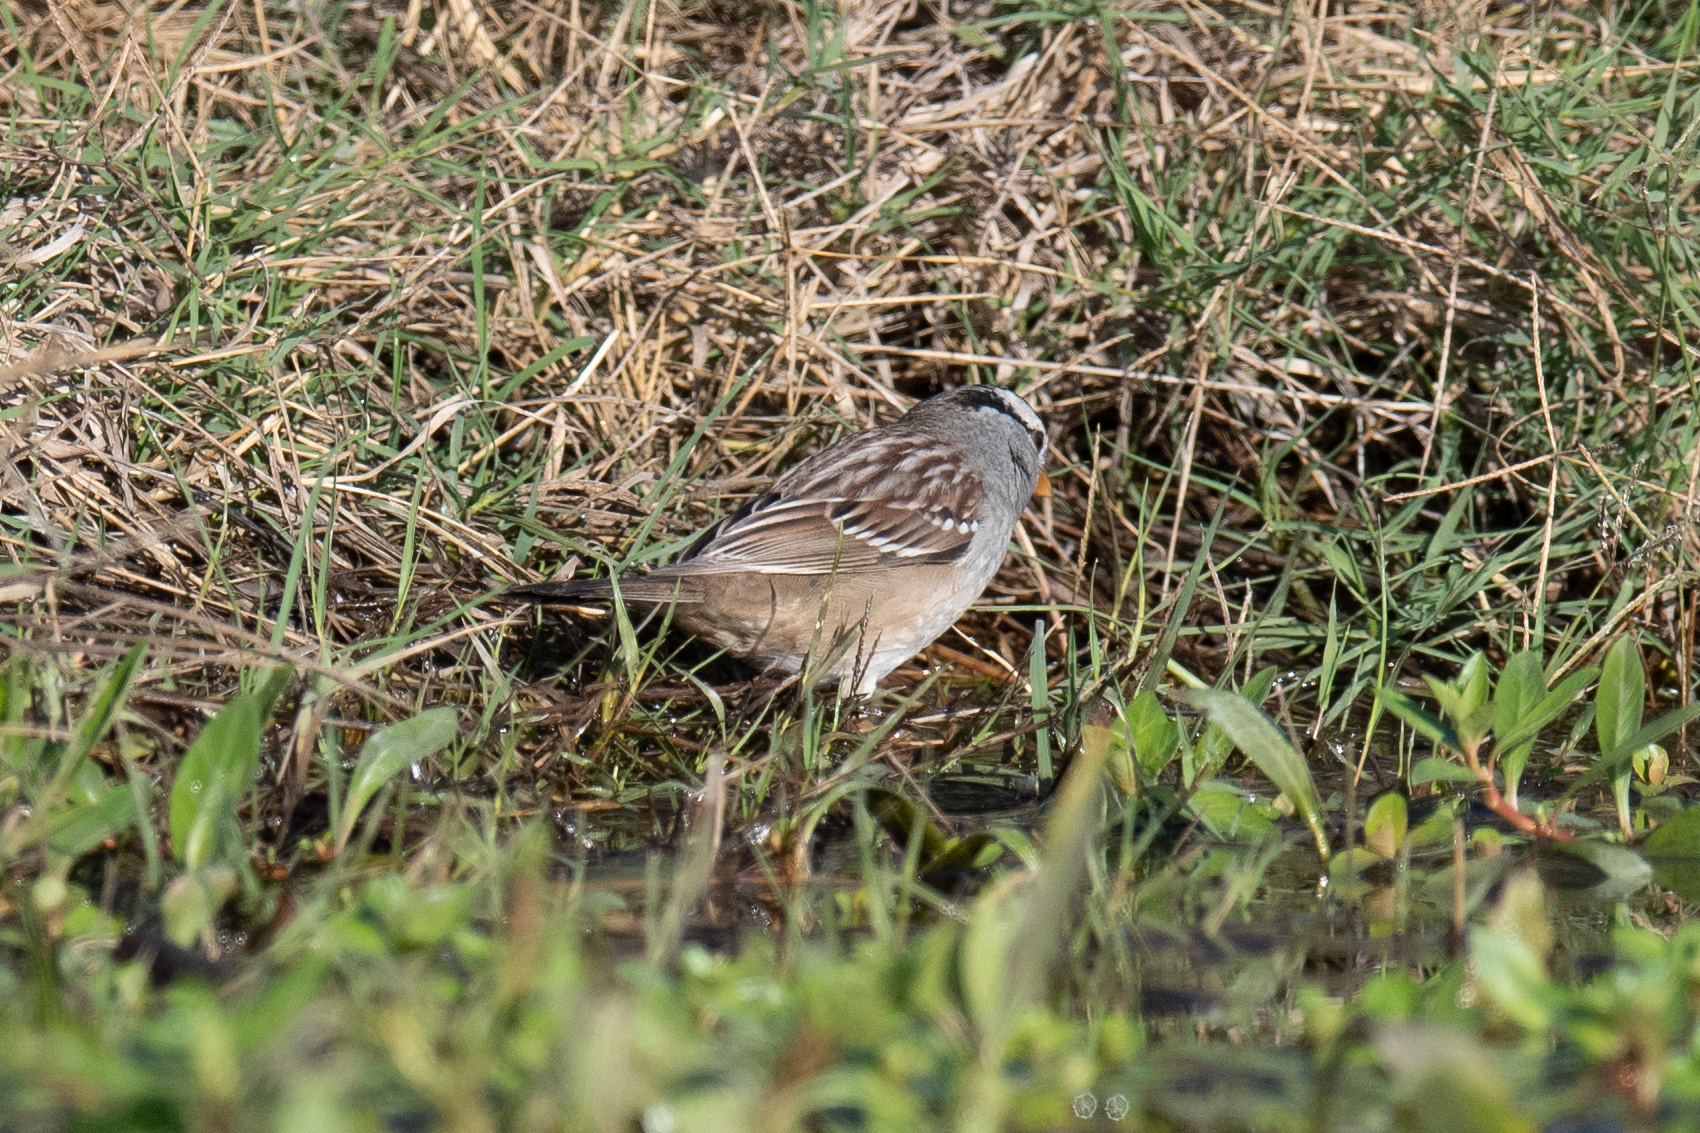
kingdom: Animalia
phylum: Chordata
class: Aves
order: Passeriformes
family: Passerellidae
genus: Zonotrichia
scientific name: Zonotrichia leucophrys
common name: White-crowned sparrow
